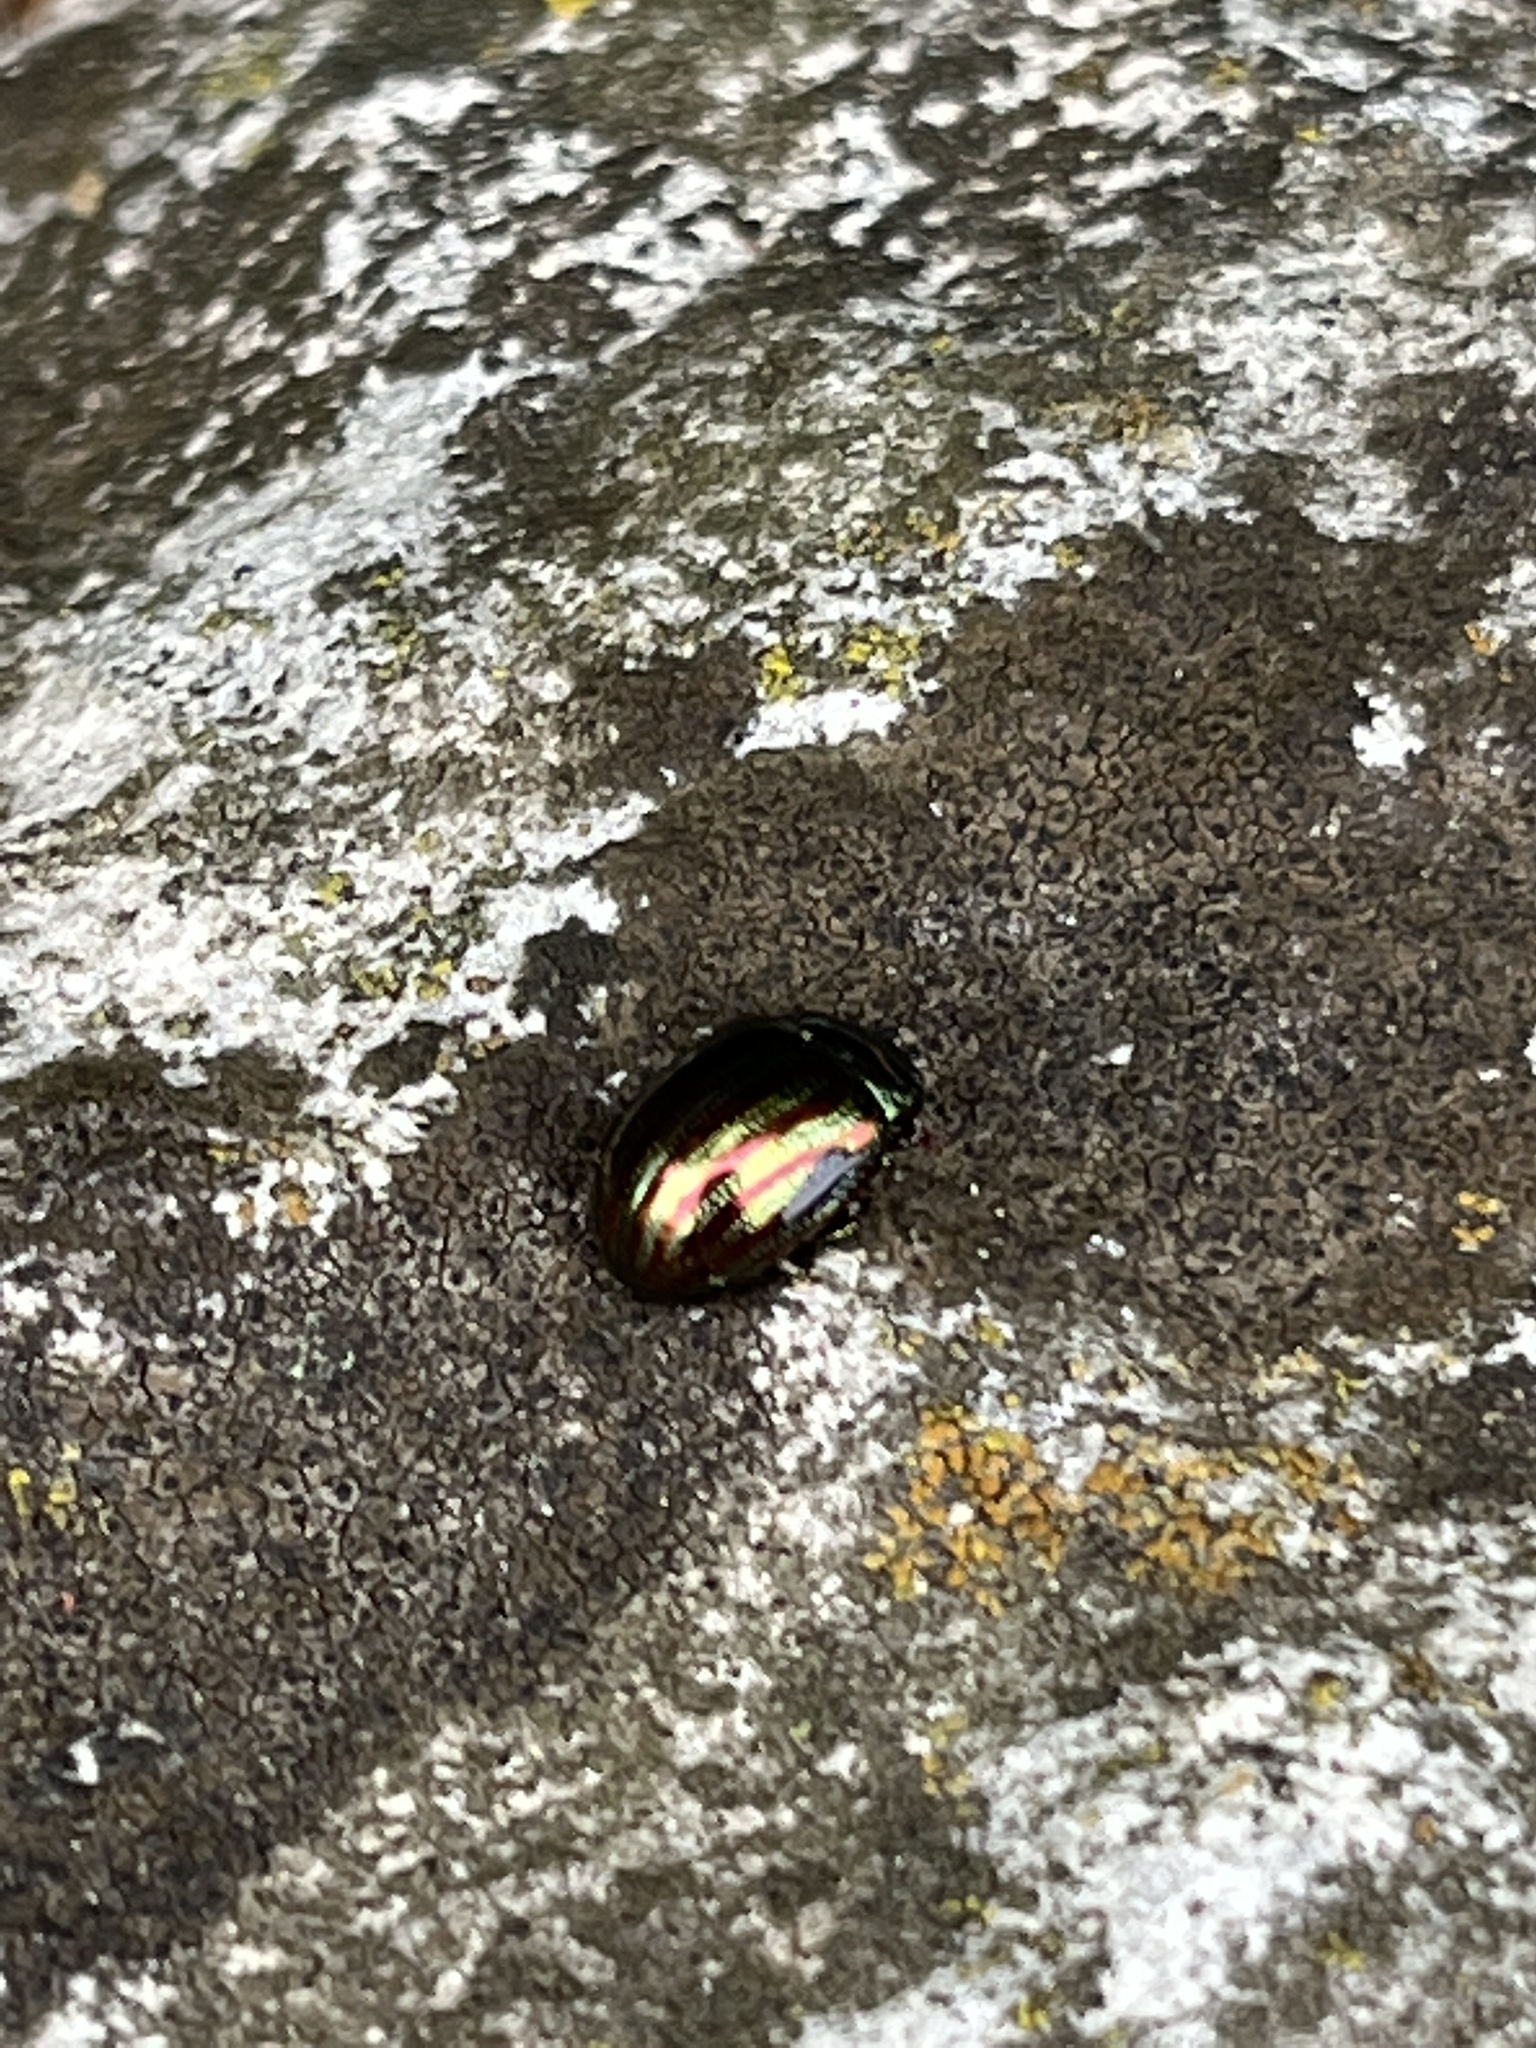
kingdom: Animalia
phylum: Arthropoda
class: Insecta
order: Coleoptera
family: Chrysomelidae
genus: Chrysolina
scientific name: Chrysolina americana
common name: Rosemary beetle
